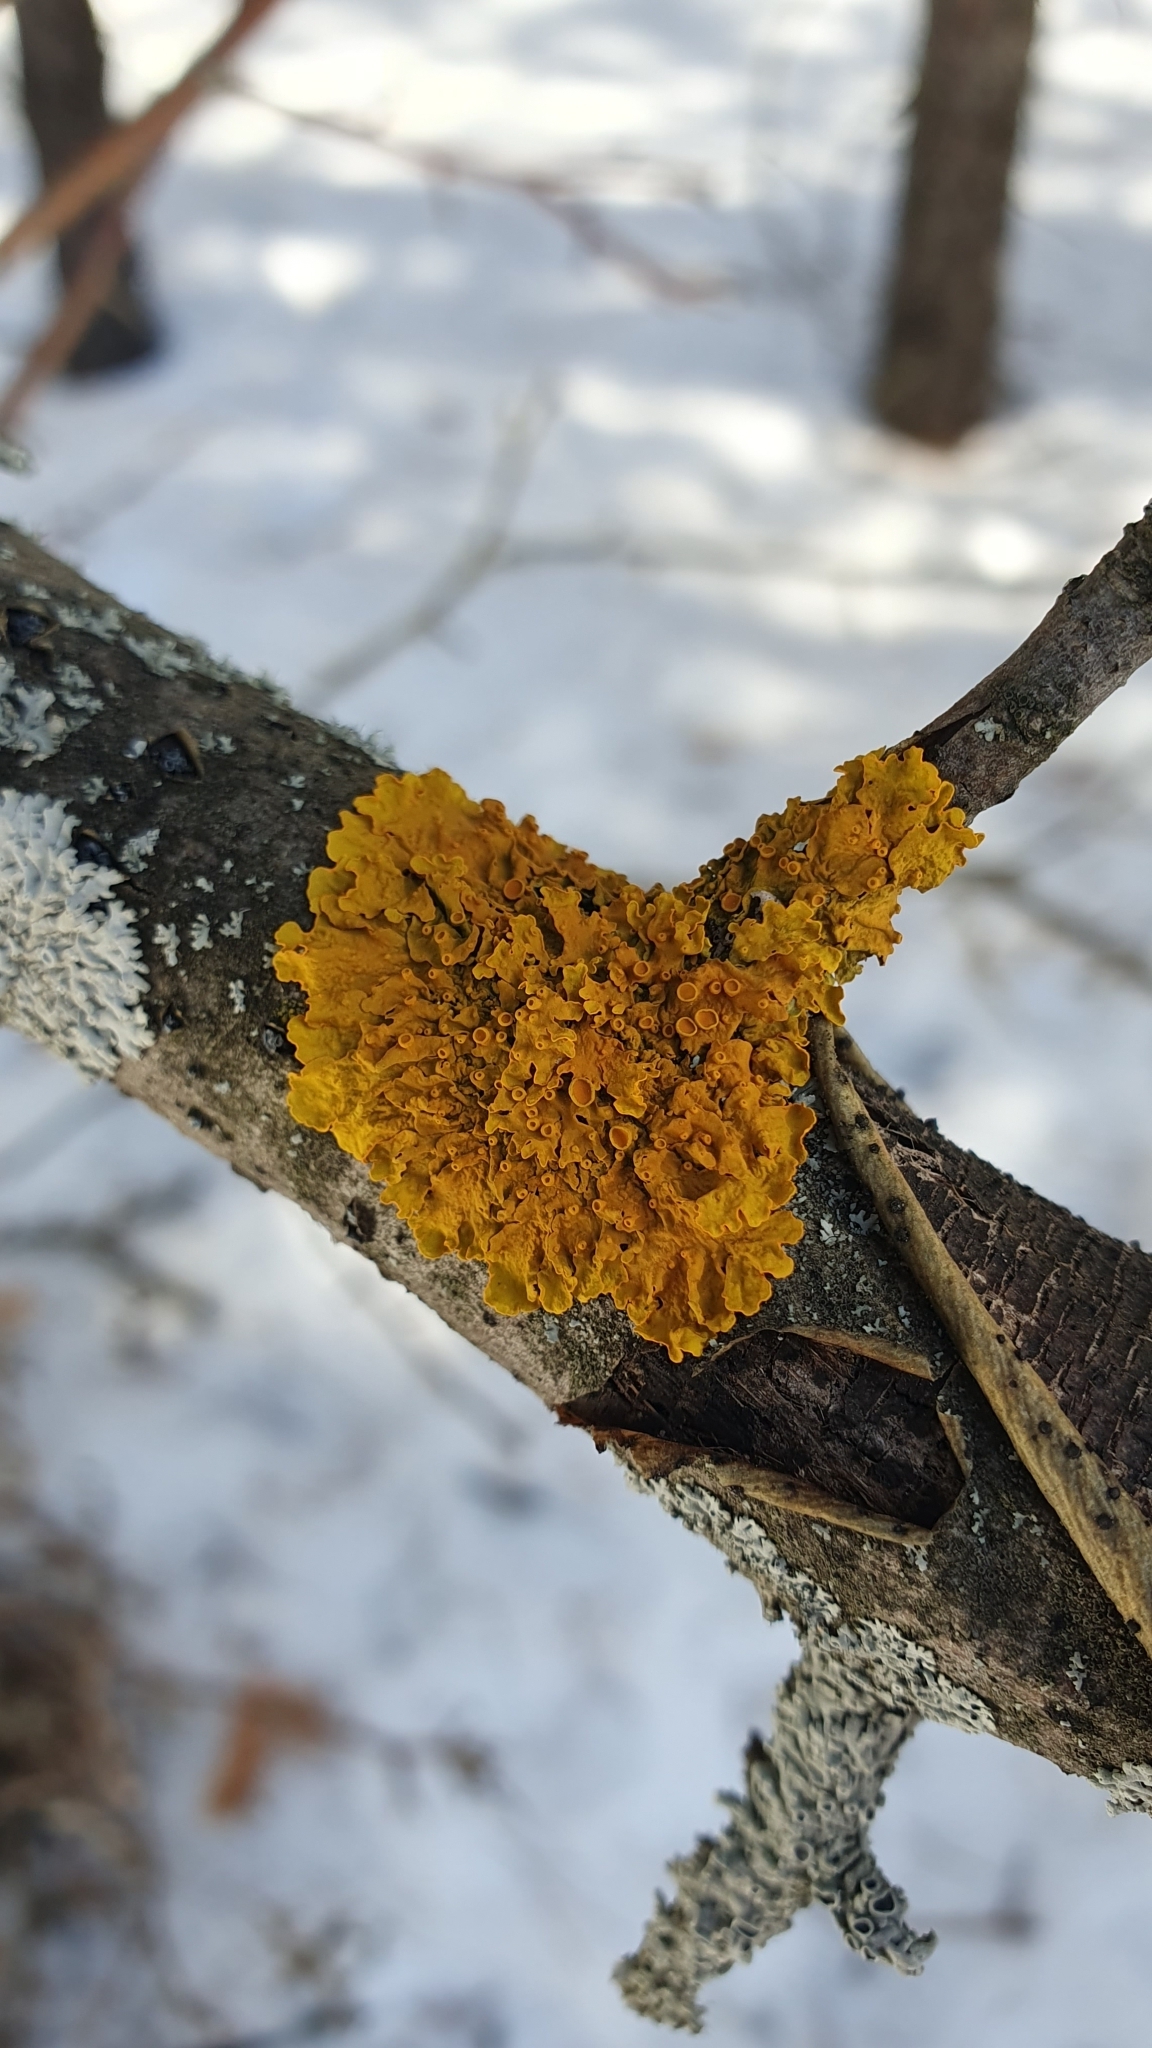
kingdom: Fungi
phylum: Ascomycota
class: Lecanoromycetes
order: Teloschistales
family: Teloschistaceae
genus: Xanthoria
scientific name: Xanthoria parietina
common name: Common orange lichen
